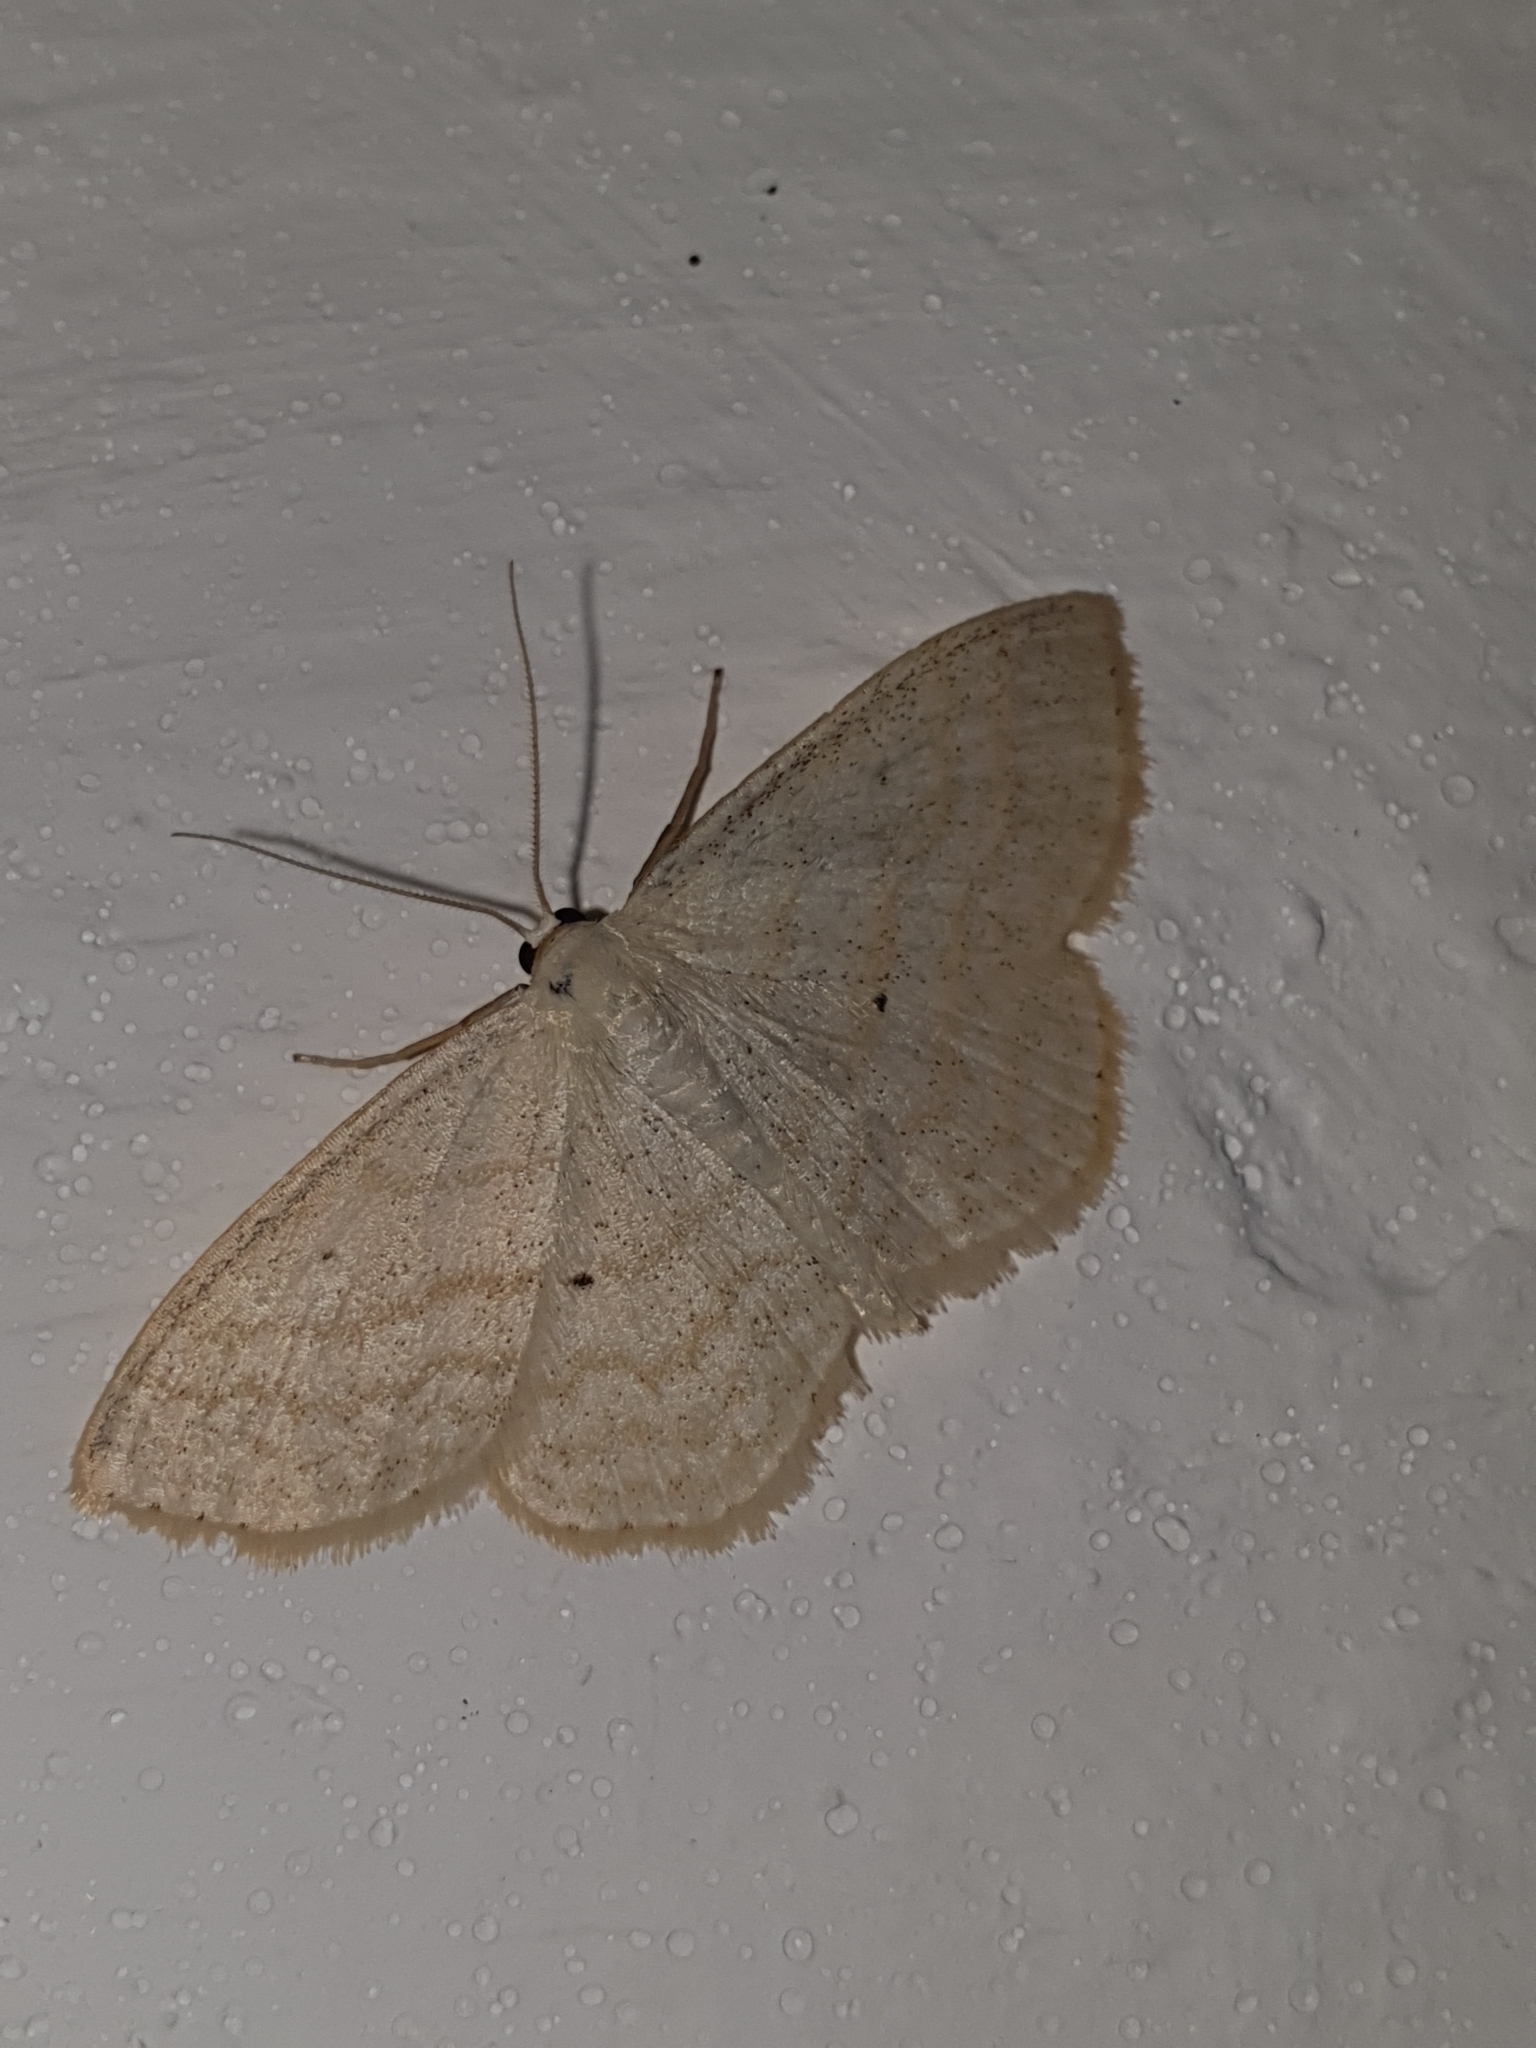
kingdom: Animalia
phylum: Arthropoda
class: Insecta
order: Lepidoptera
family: Geometridae
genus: Scopula
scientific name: Scopula immutata
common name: Lesser cream wave
